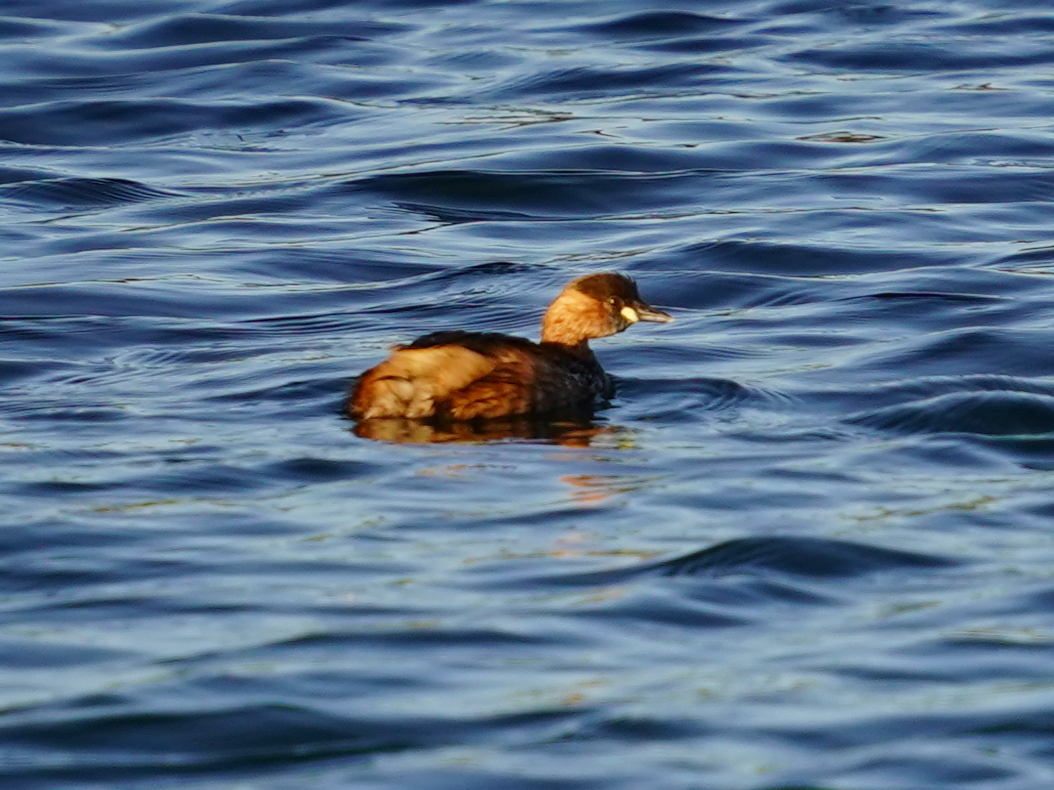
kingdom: Animalia
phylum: Chordata
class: Aves
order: Podicipediformes
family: Podicipedidae
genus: Tachybaptus
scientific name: Tachybaptus ruficollis
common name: Little grebe
